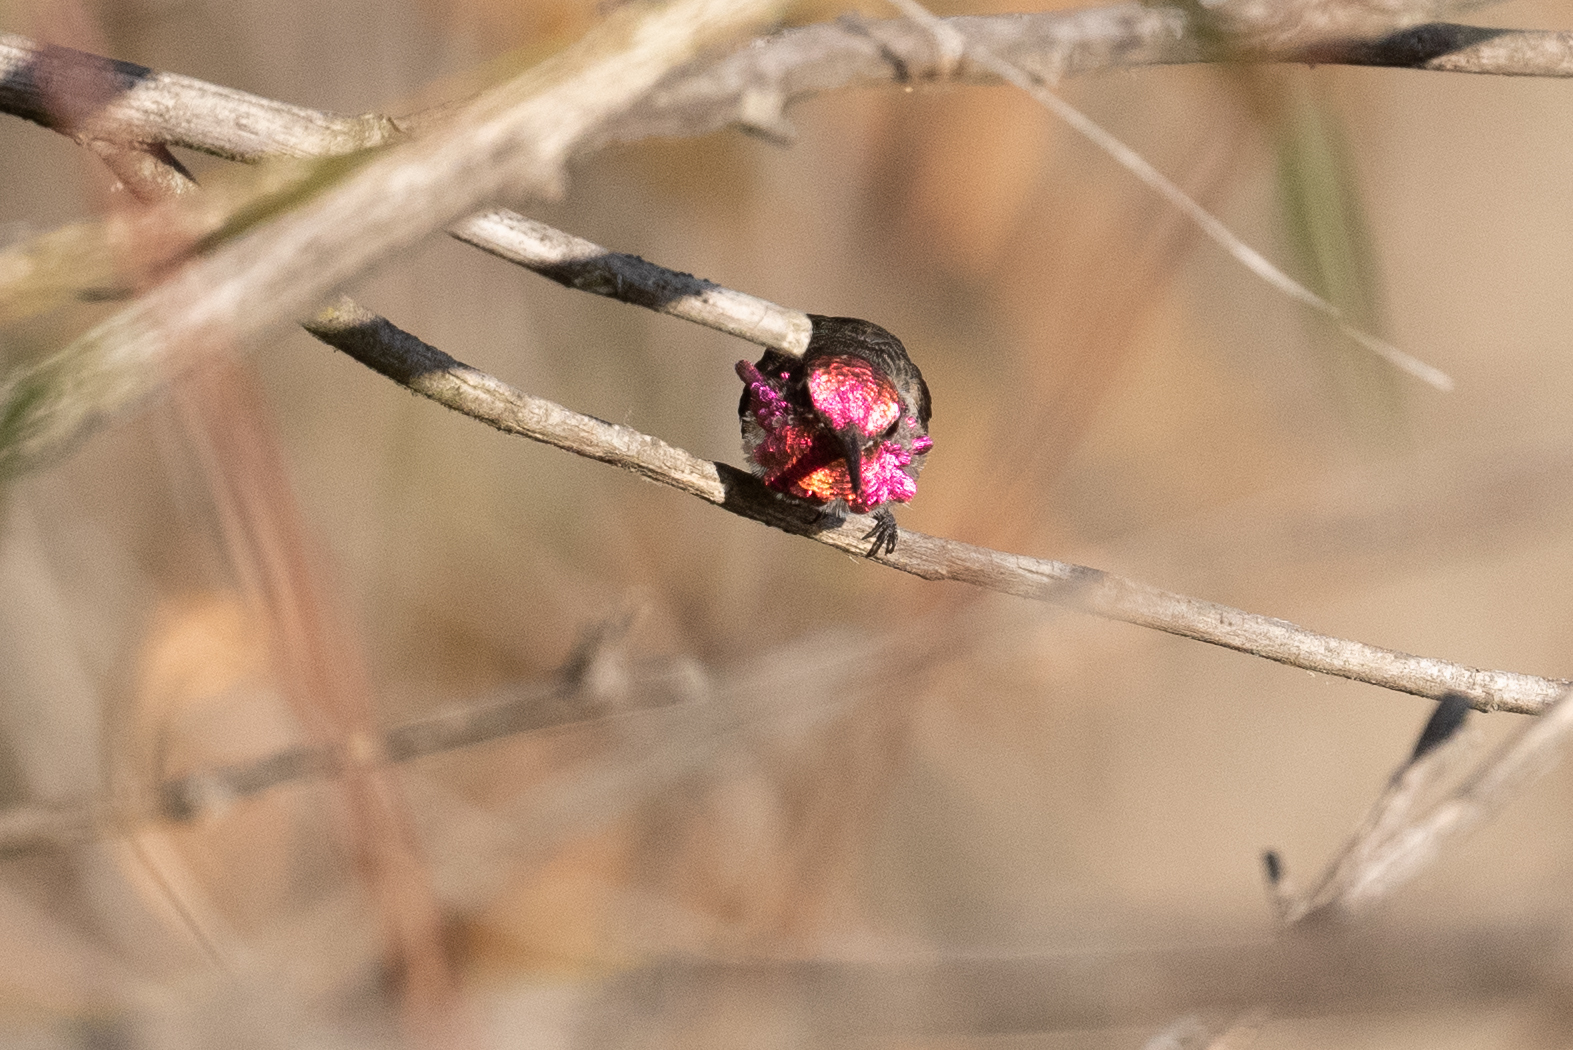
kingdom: Animalia
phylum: Chordata
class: Aves
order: Apodiformes
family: Trochilidae
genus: Calypte
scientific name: Calypte anna
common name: Anna's hummingbird
